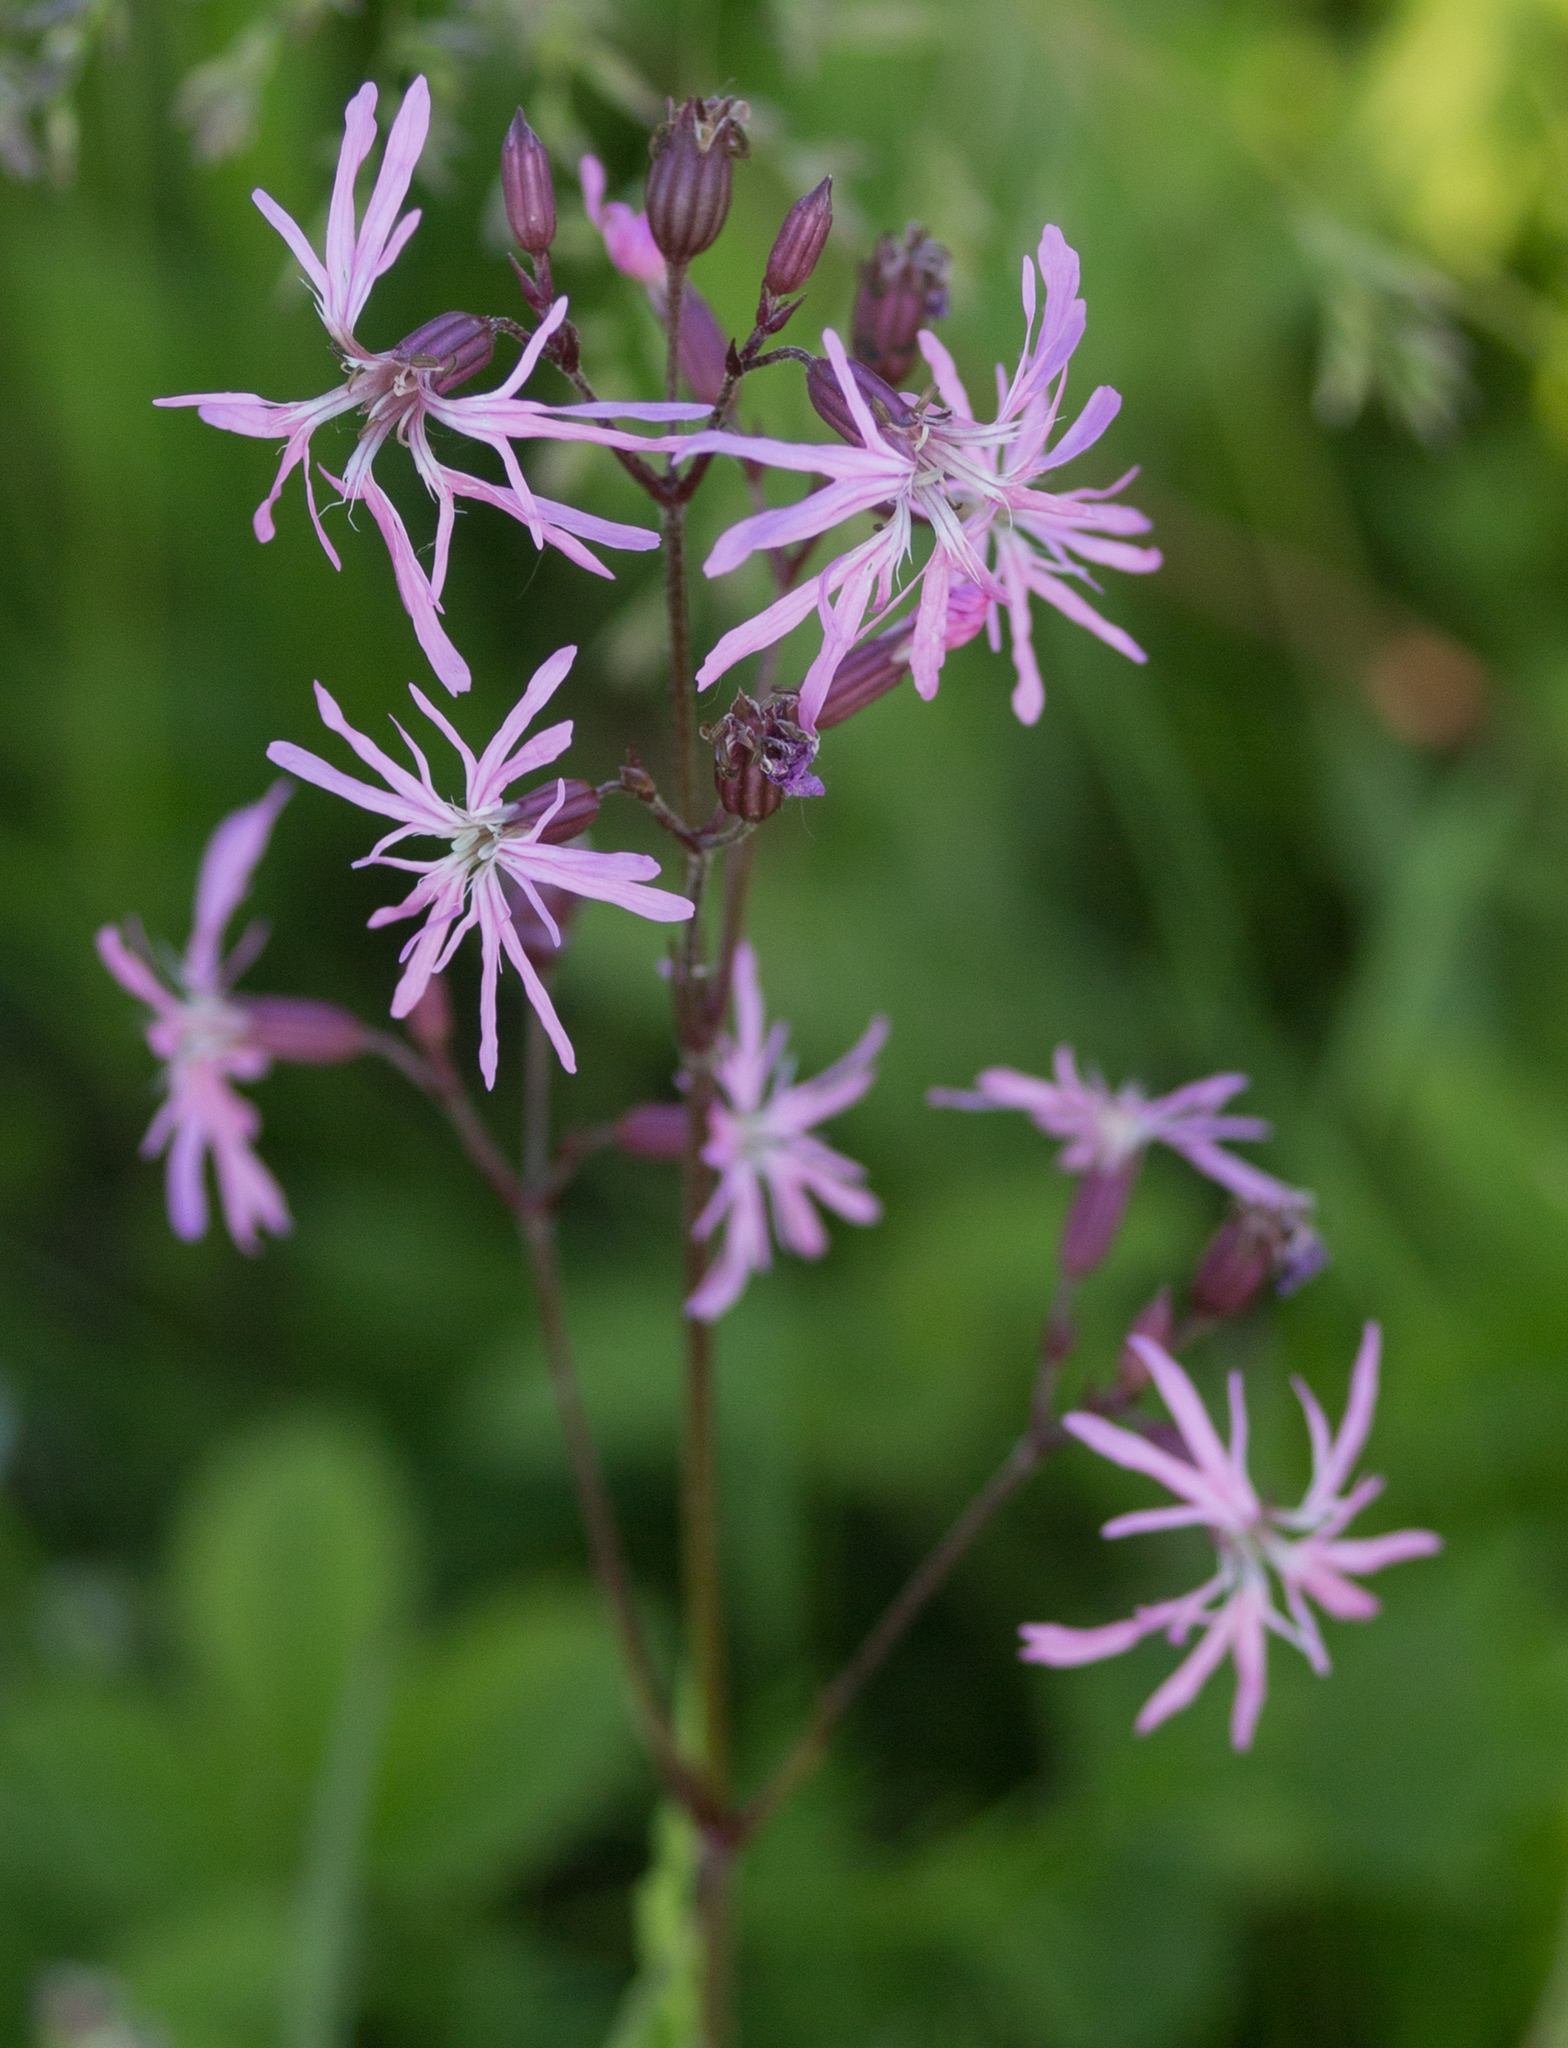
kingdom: Plantae
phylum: Tracheophyta
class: Magnoliopsida
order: Caryophyllales
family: Caryophyllaceae
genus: Silene
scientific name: Silene flos-cuculi
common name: Ragged-robin
